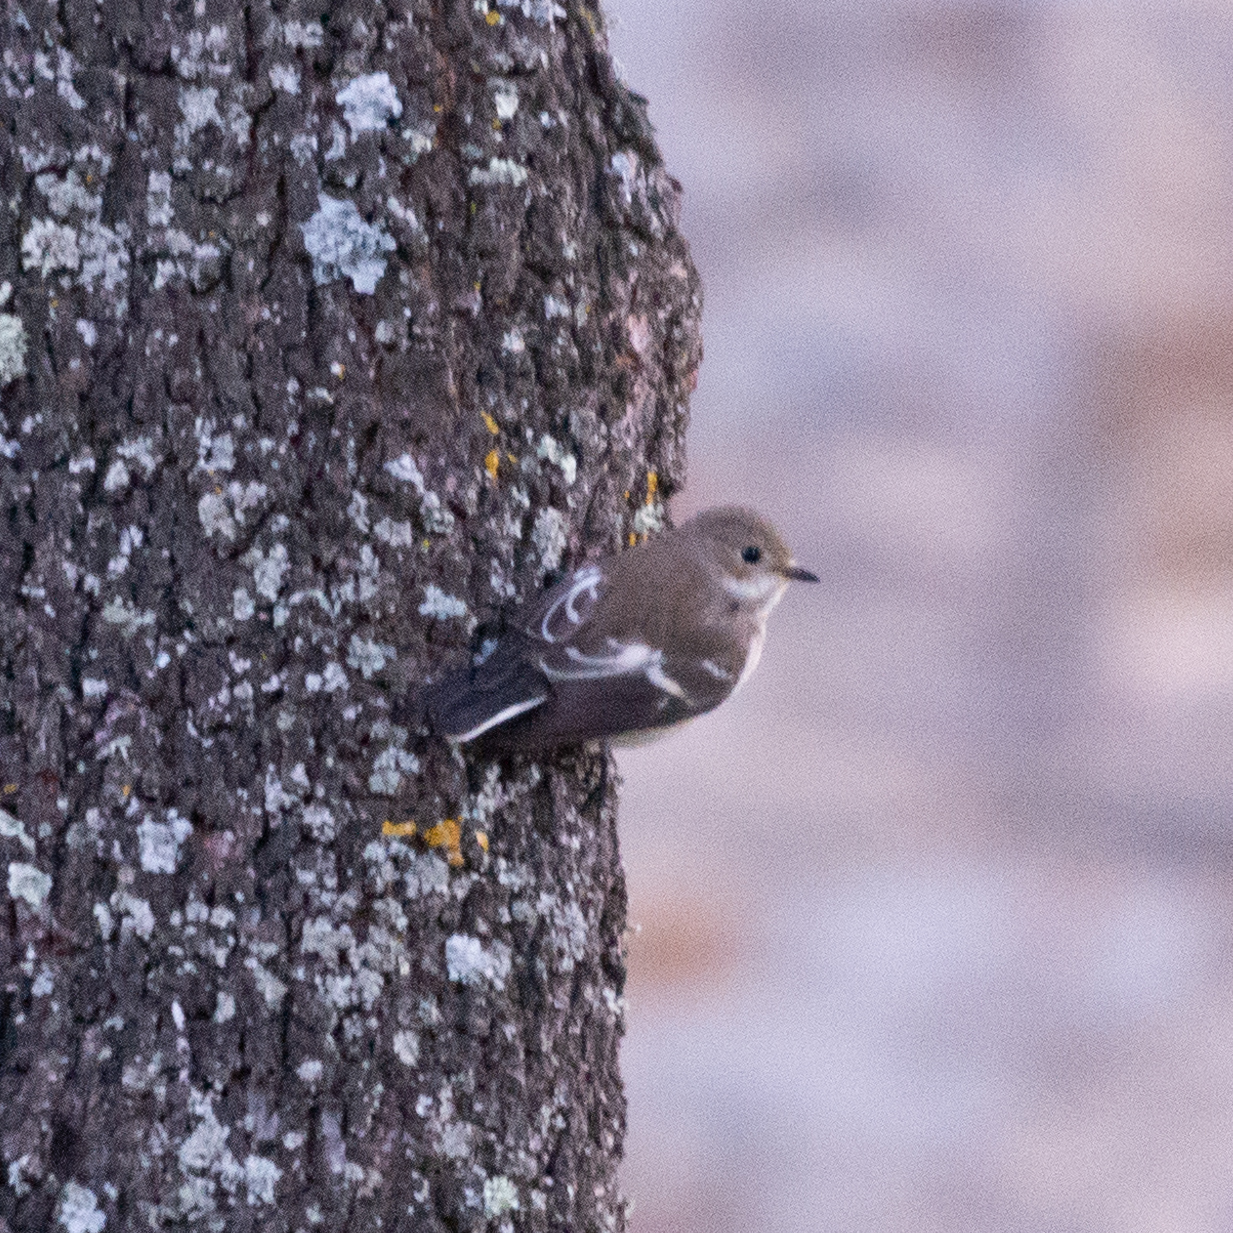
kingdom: Animalia
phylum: Chordata
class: Aves
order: Passeriformes
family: Muscicapidae
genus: Ficedula
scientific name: Ficedula hypoleuca
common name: European pied flycatcher
